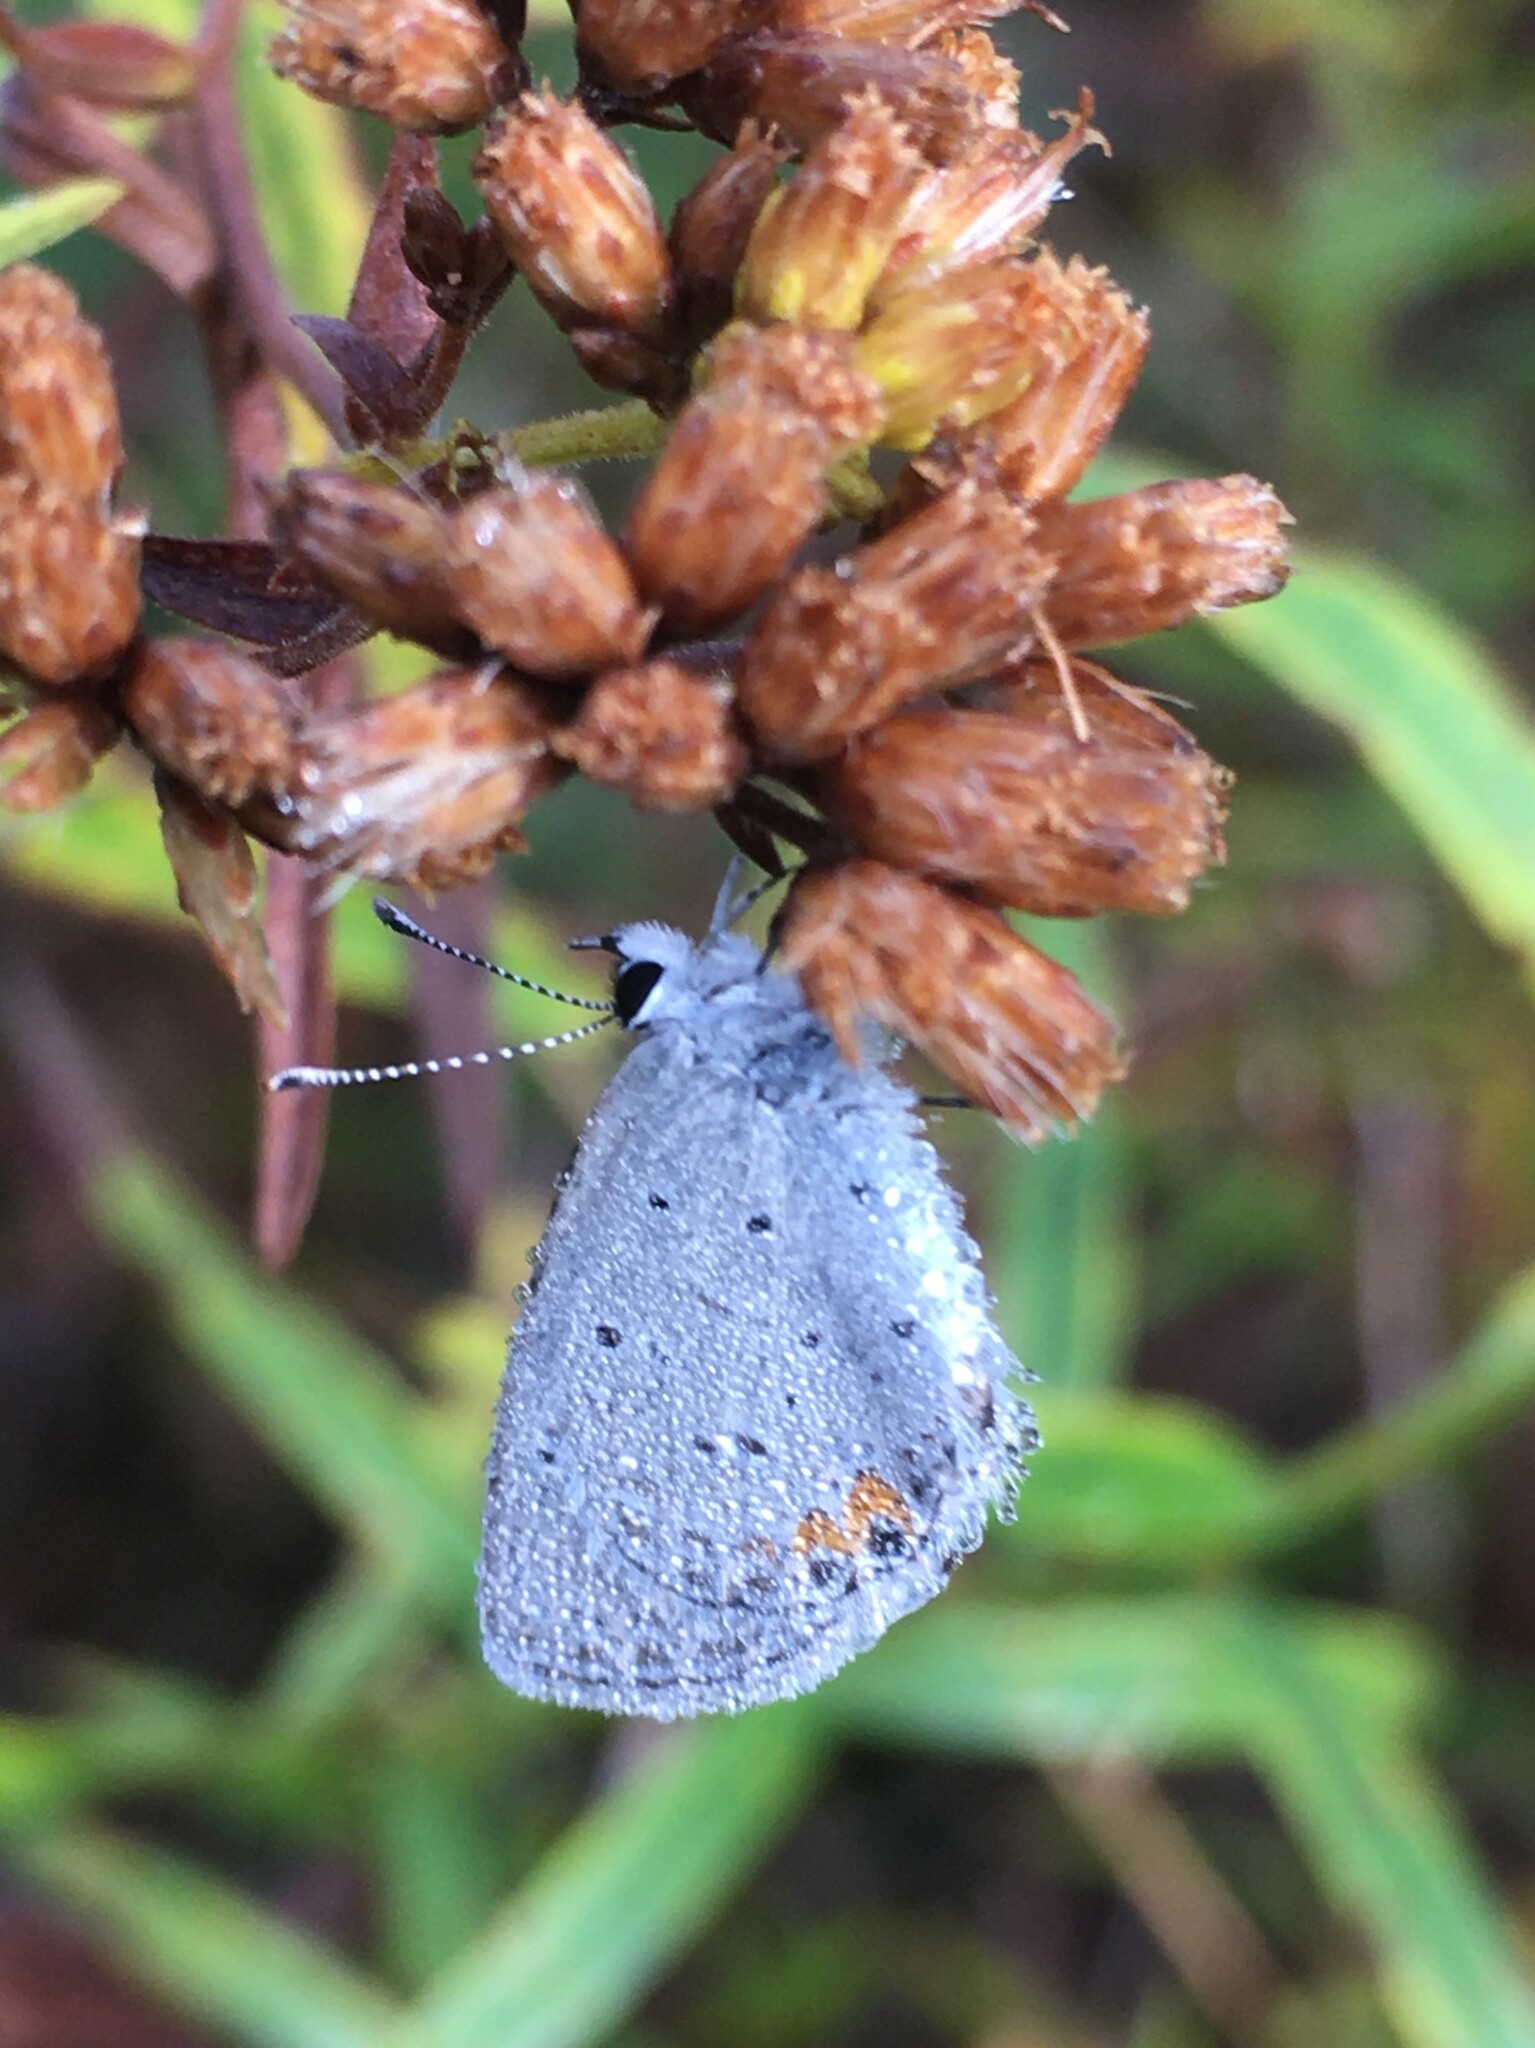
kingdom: Animalia
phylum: Arthropoda
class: Insecta
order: Lepidoptera
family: Lycaenidae
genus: Elkalyce
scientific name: Elkalyce comyntas
